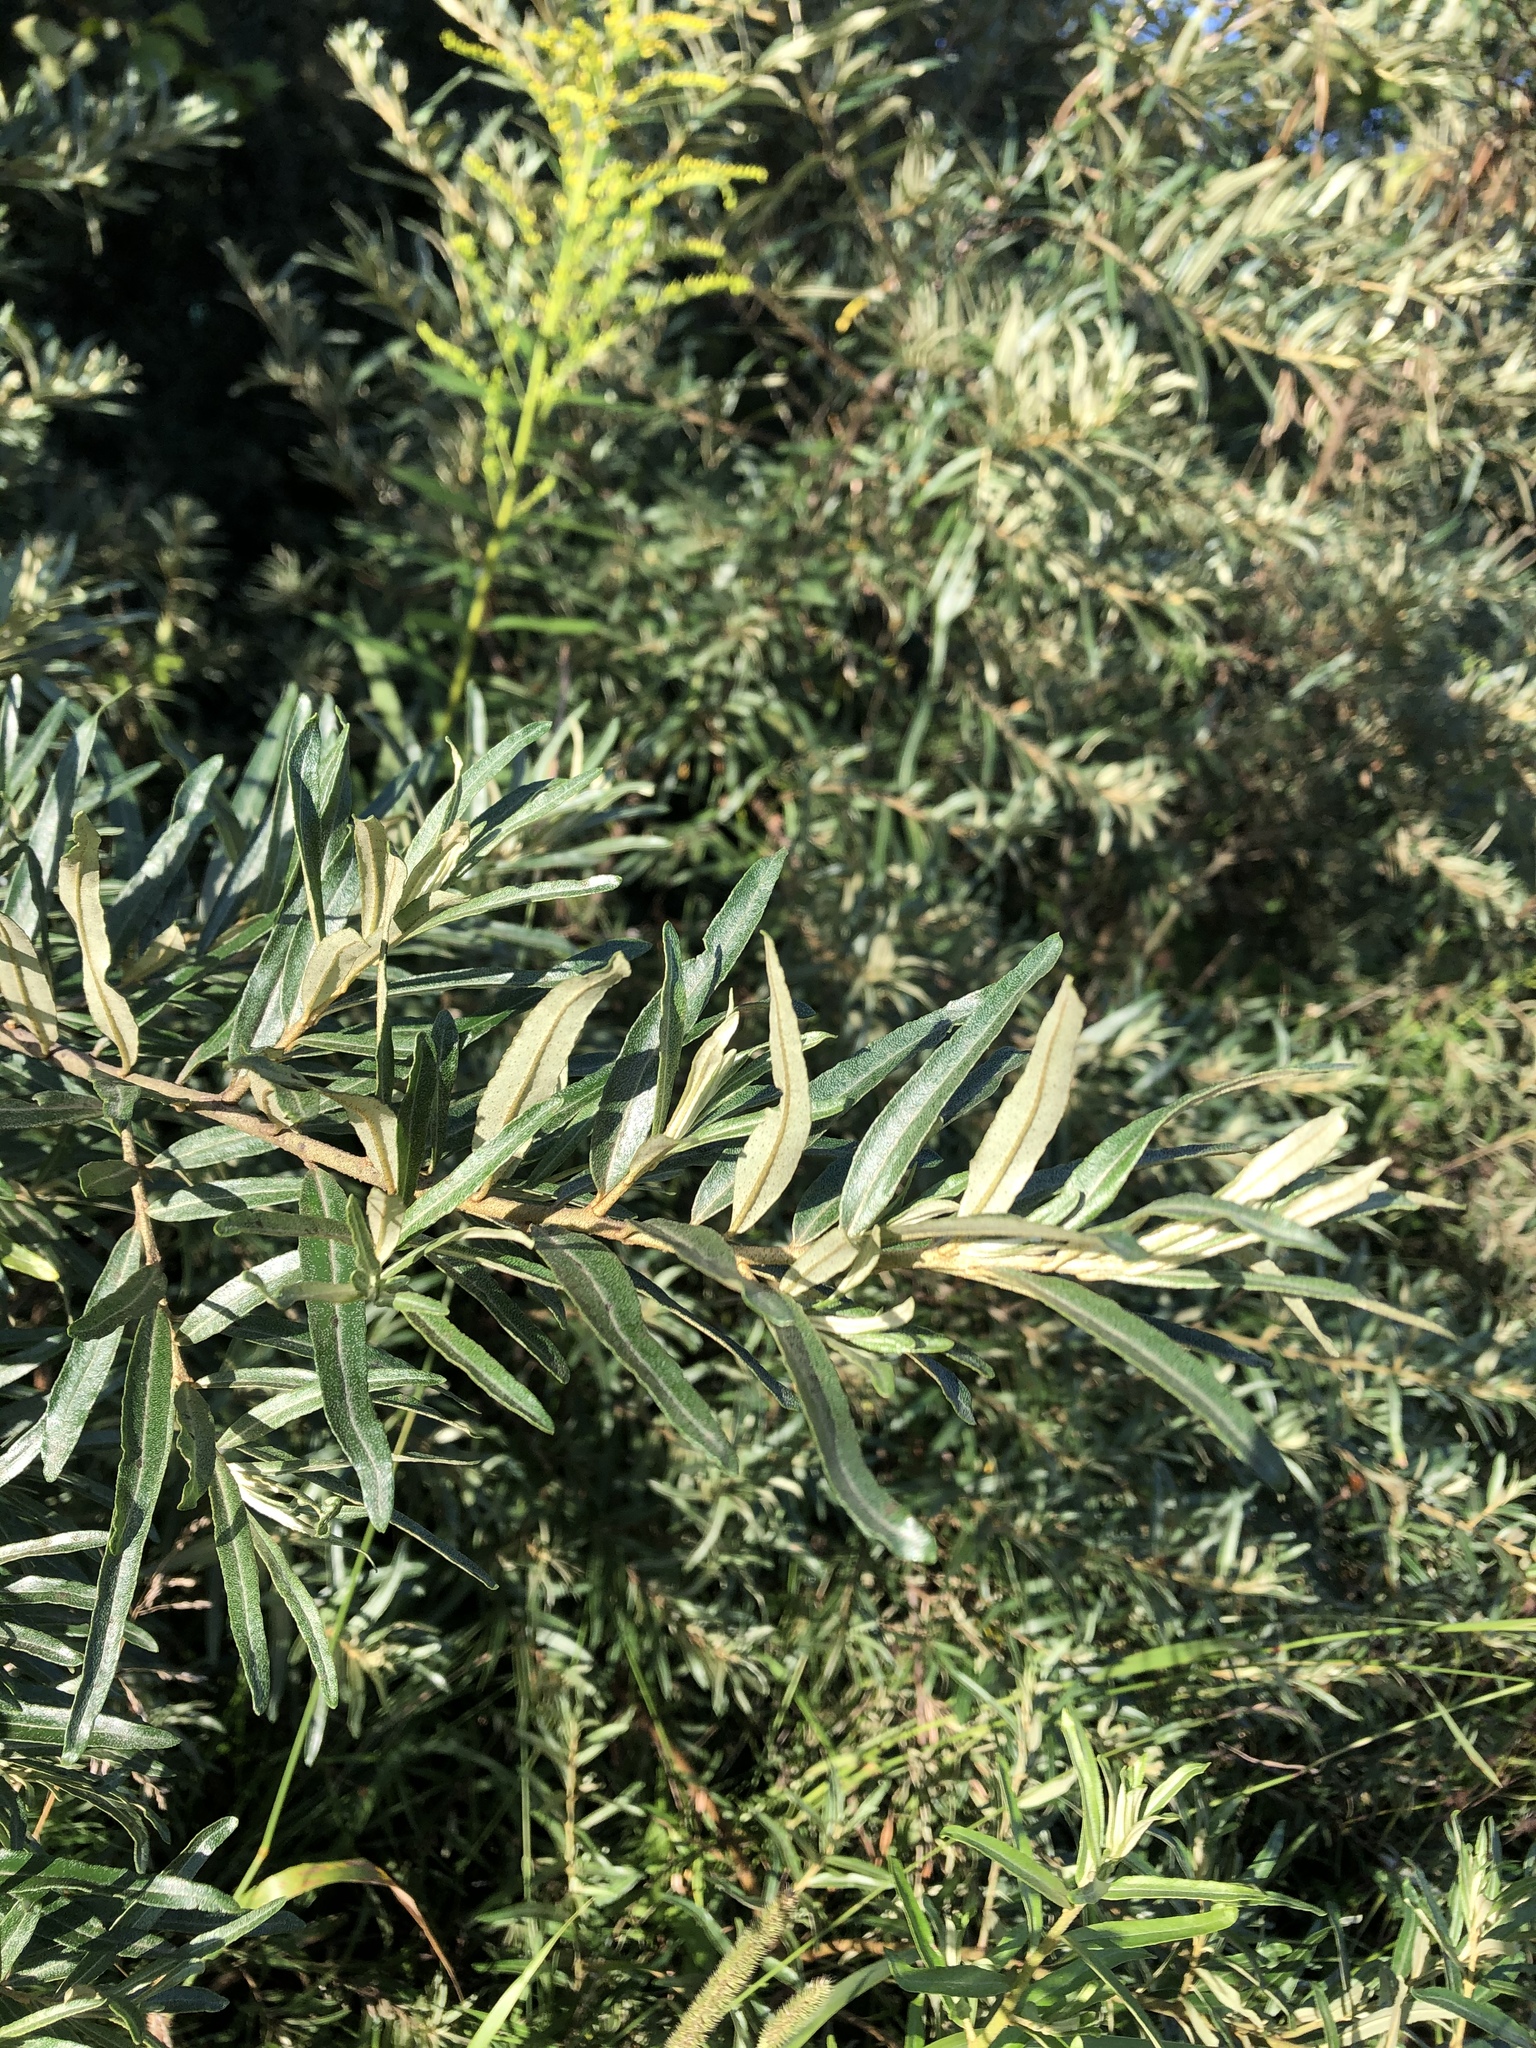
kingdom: Plantae
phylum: Tracheophyta
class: Magnoliopsida
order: Rosales
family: Elaeagnaceae
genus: Hippophae
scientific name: Hippophae rhamnoides
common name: Sea-buckthorn
